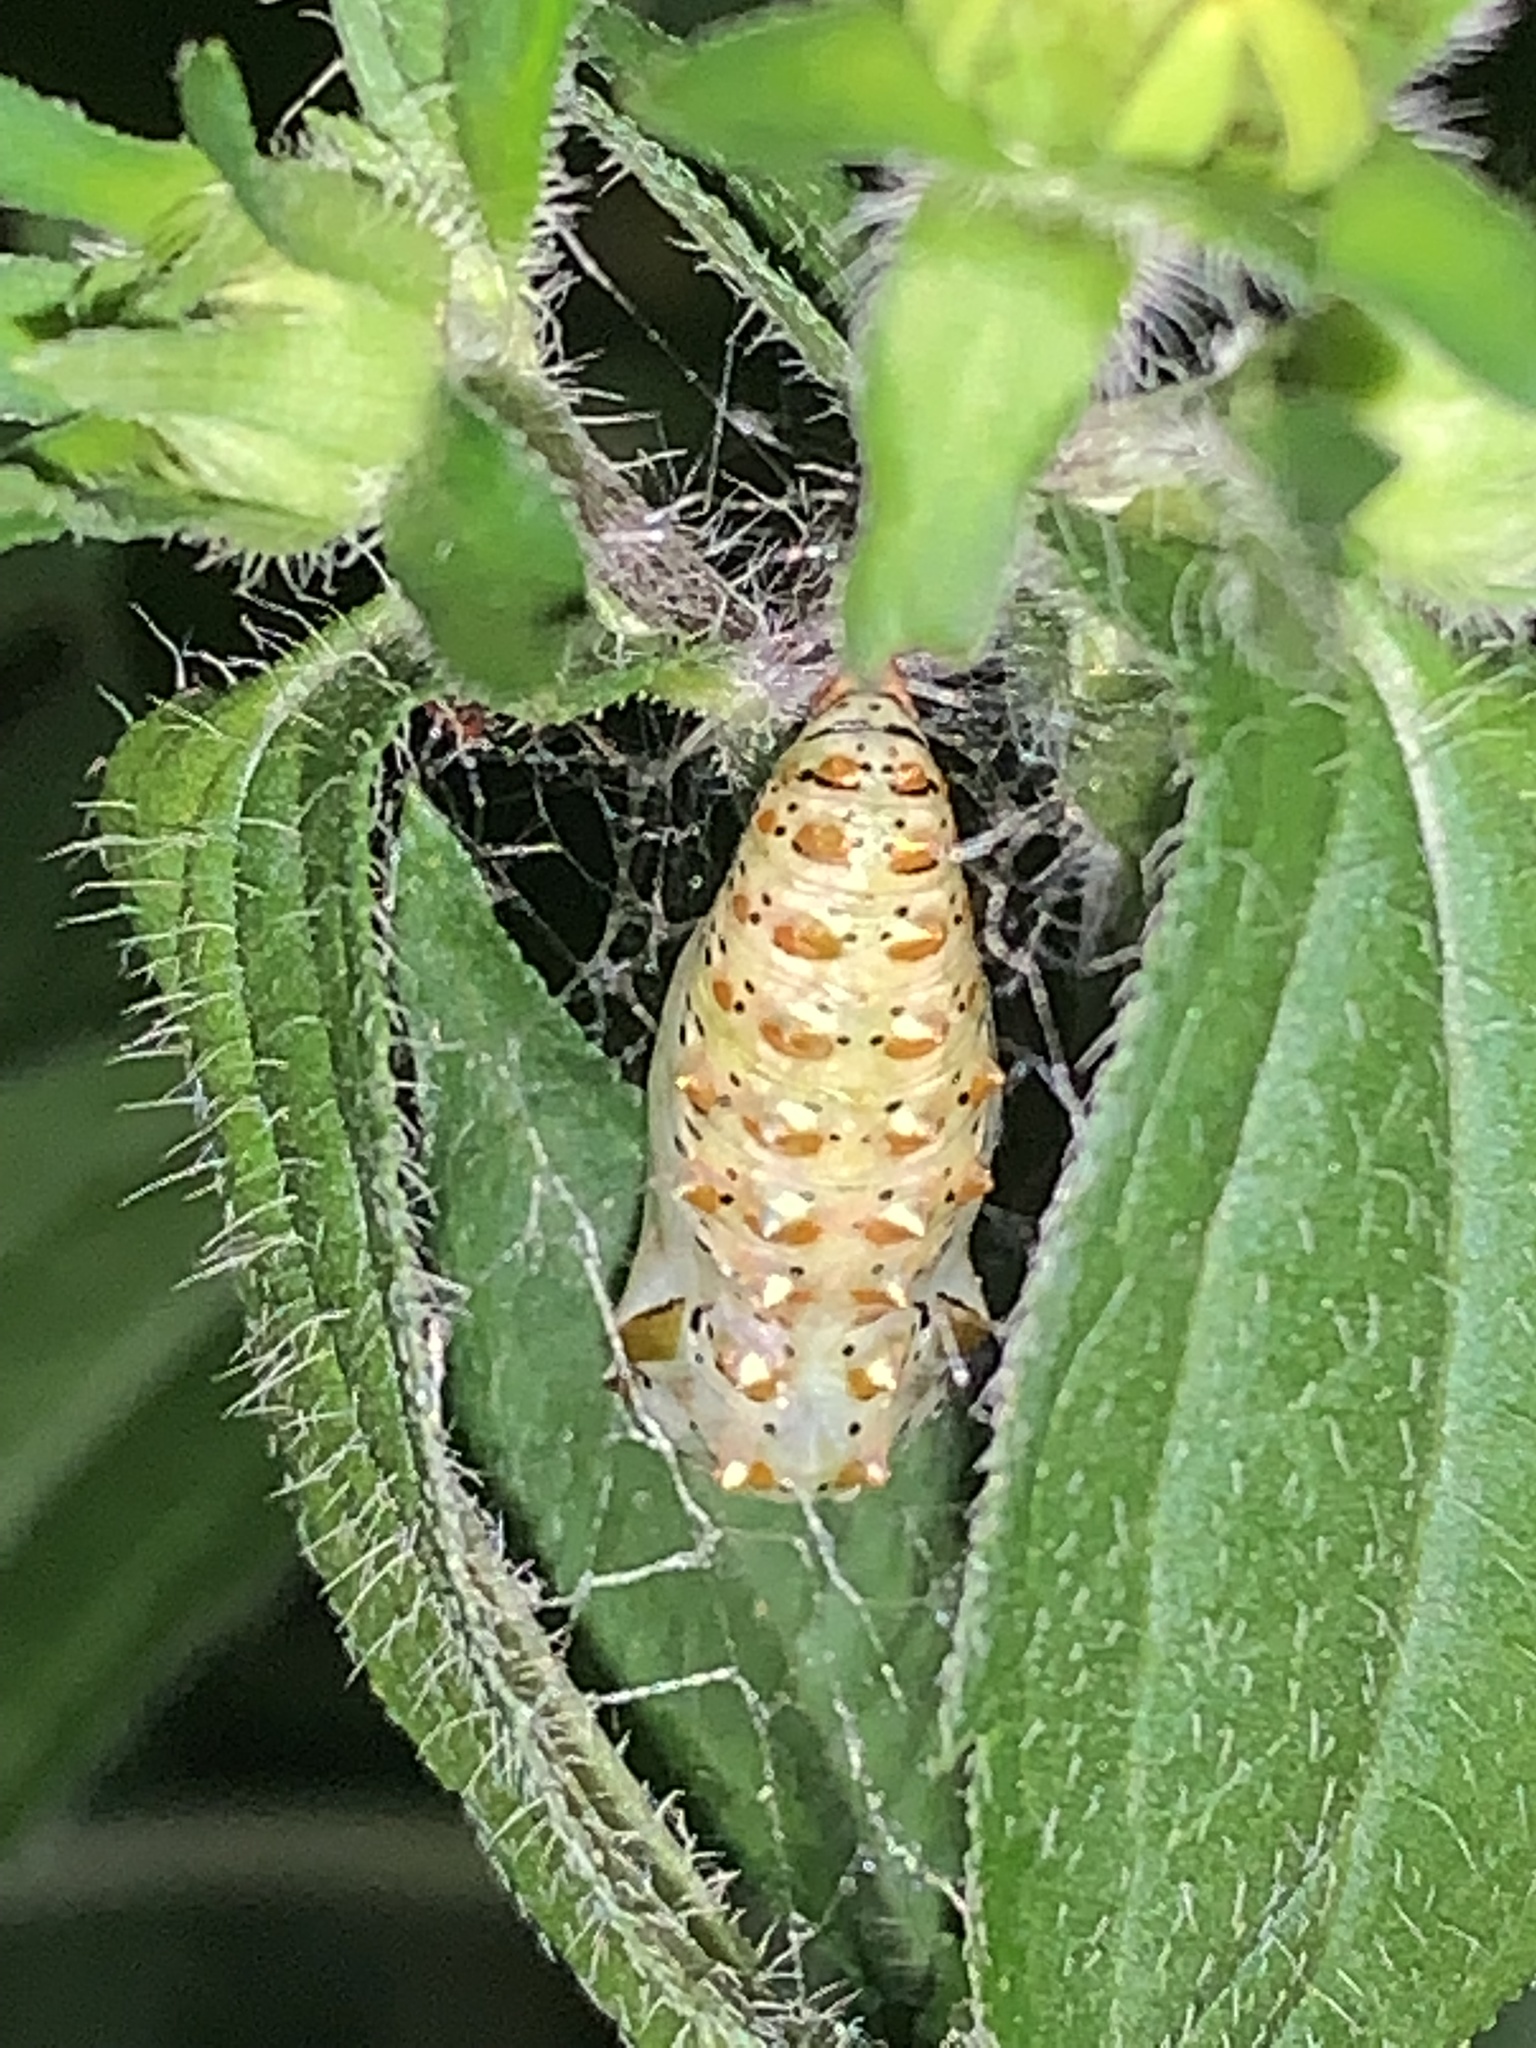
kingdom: Animalia
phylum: Arthropoda
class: Insecta
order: Lepidoptera
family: Nymphalidae
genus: Euptoieta
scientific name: Euptoieta claudia
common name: Variegated fritillary
